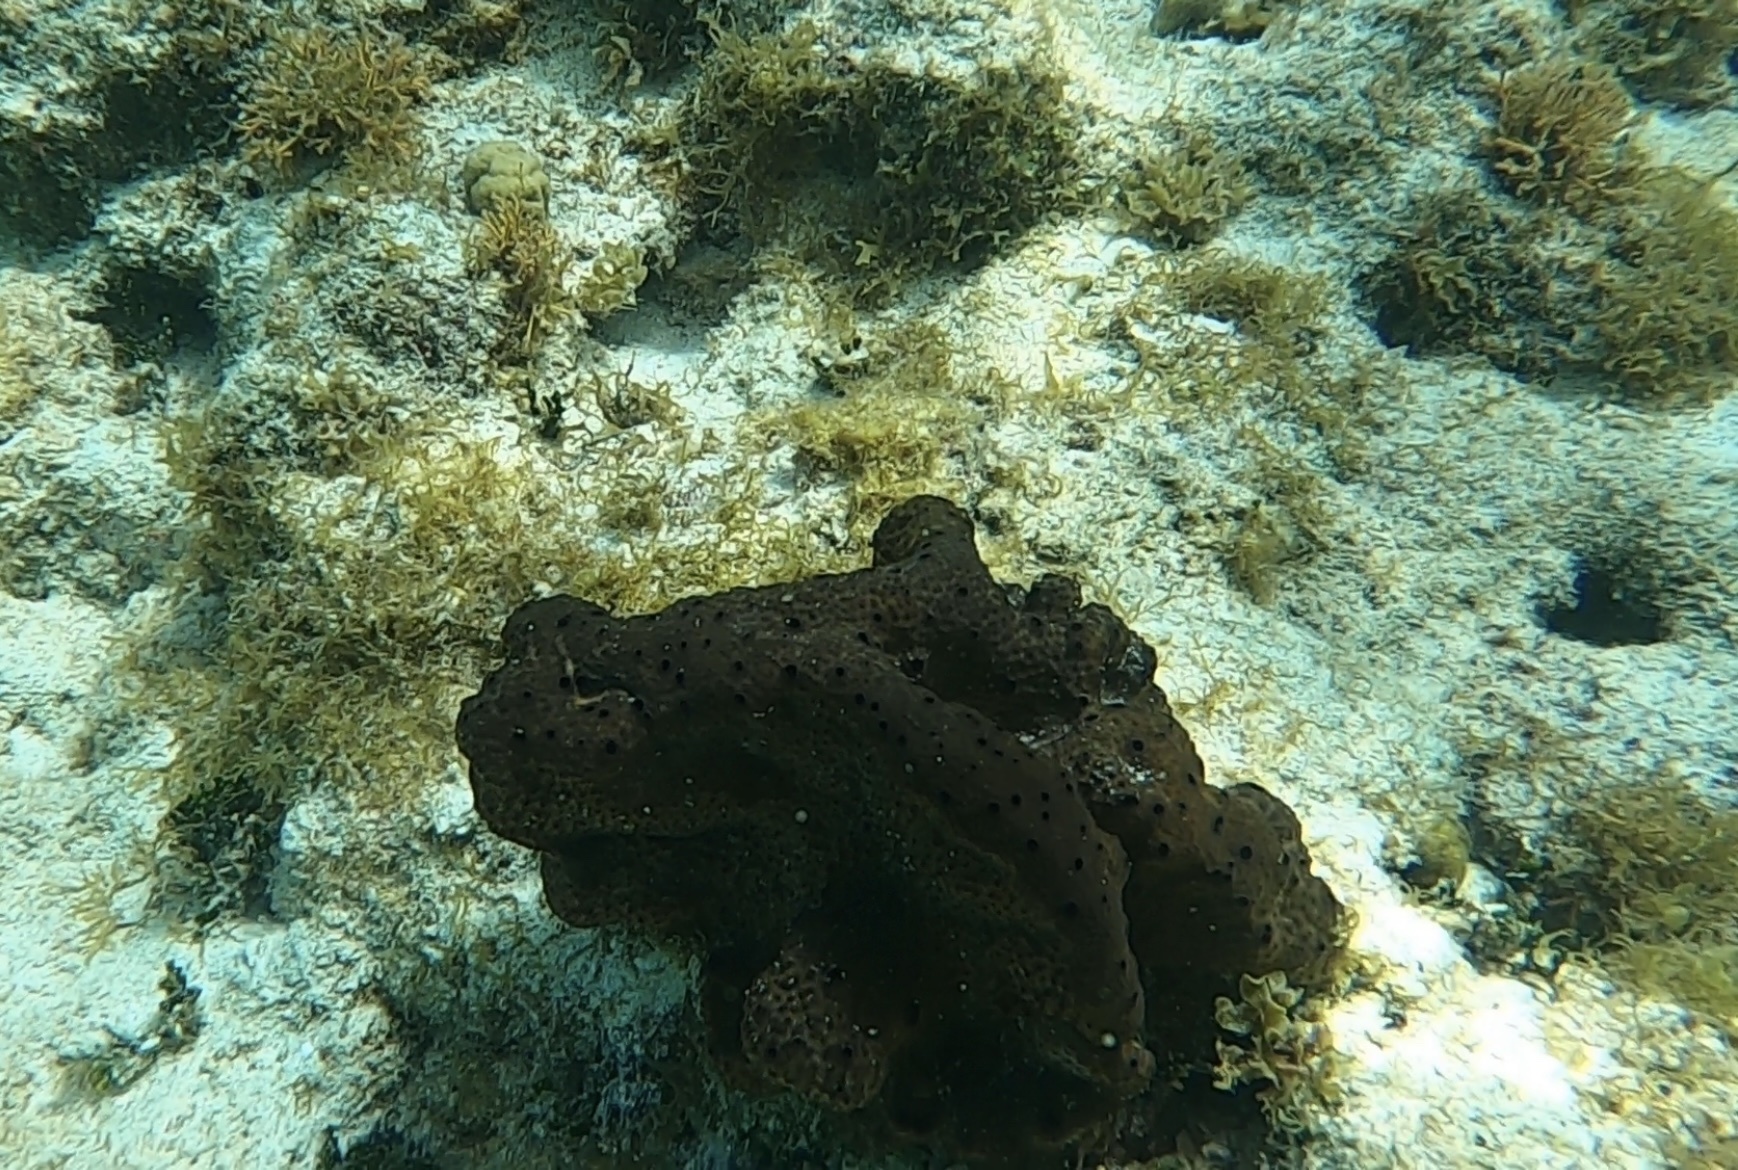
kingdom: Animalia
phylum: Porifera
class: Demospongiae
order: Clionaida
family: Clionaidae
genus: Spheciospongia
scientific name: Spheciospongia vesparium
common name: Manjack
